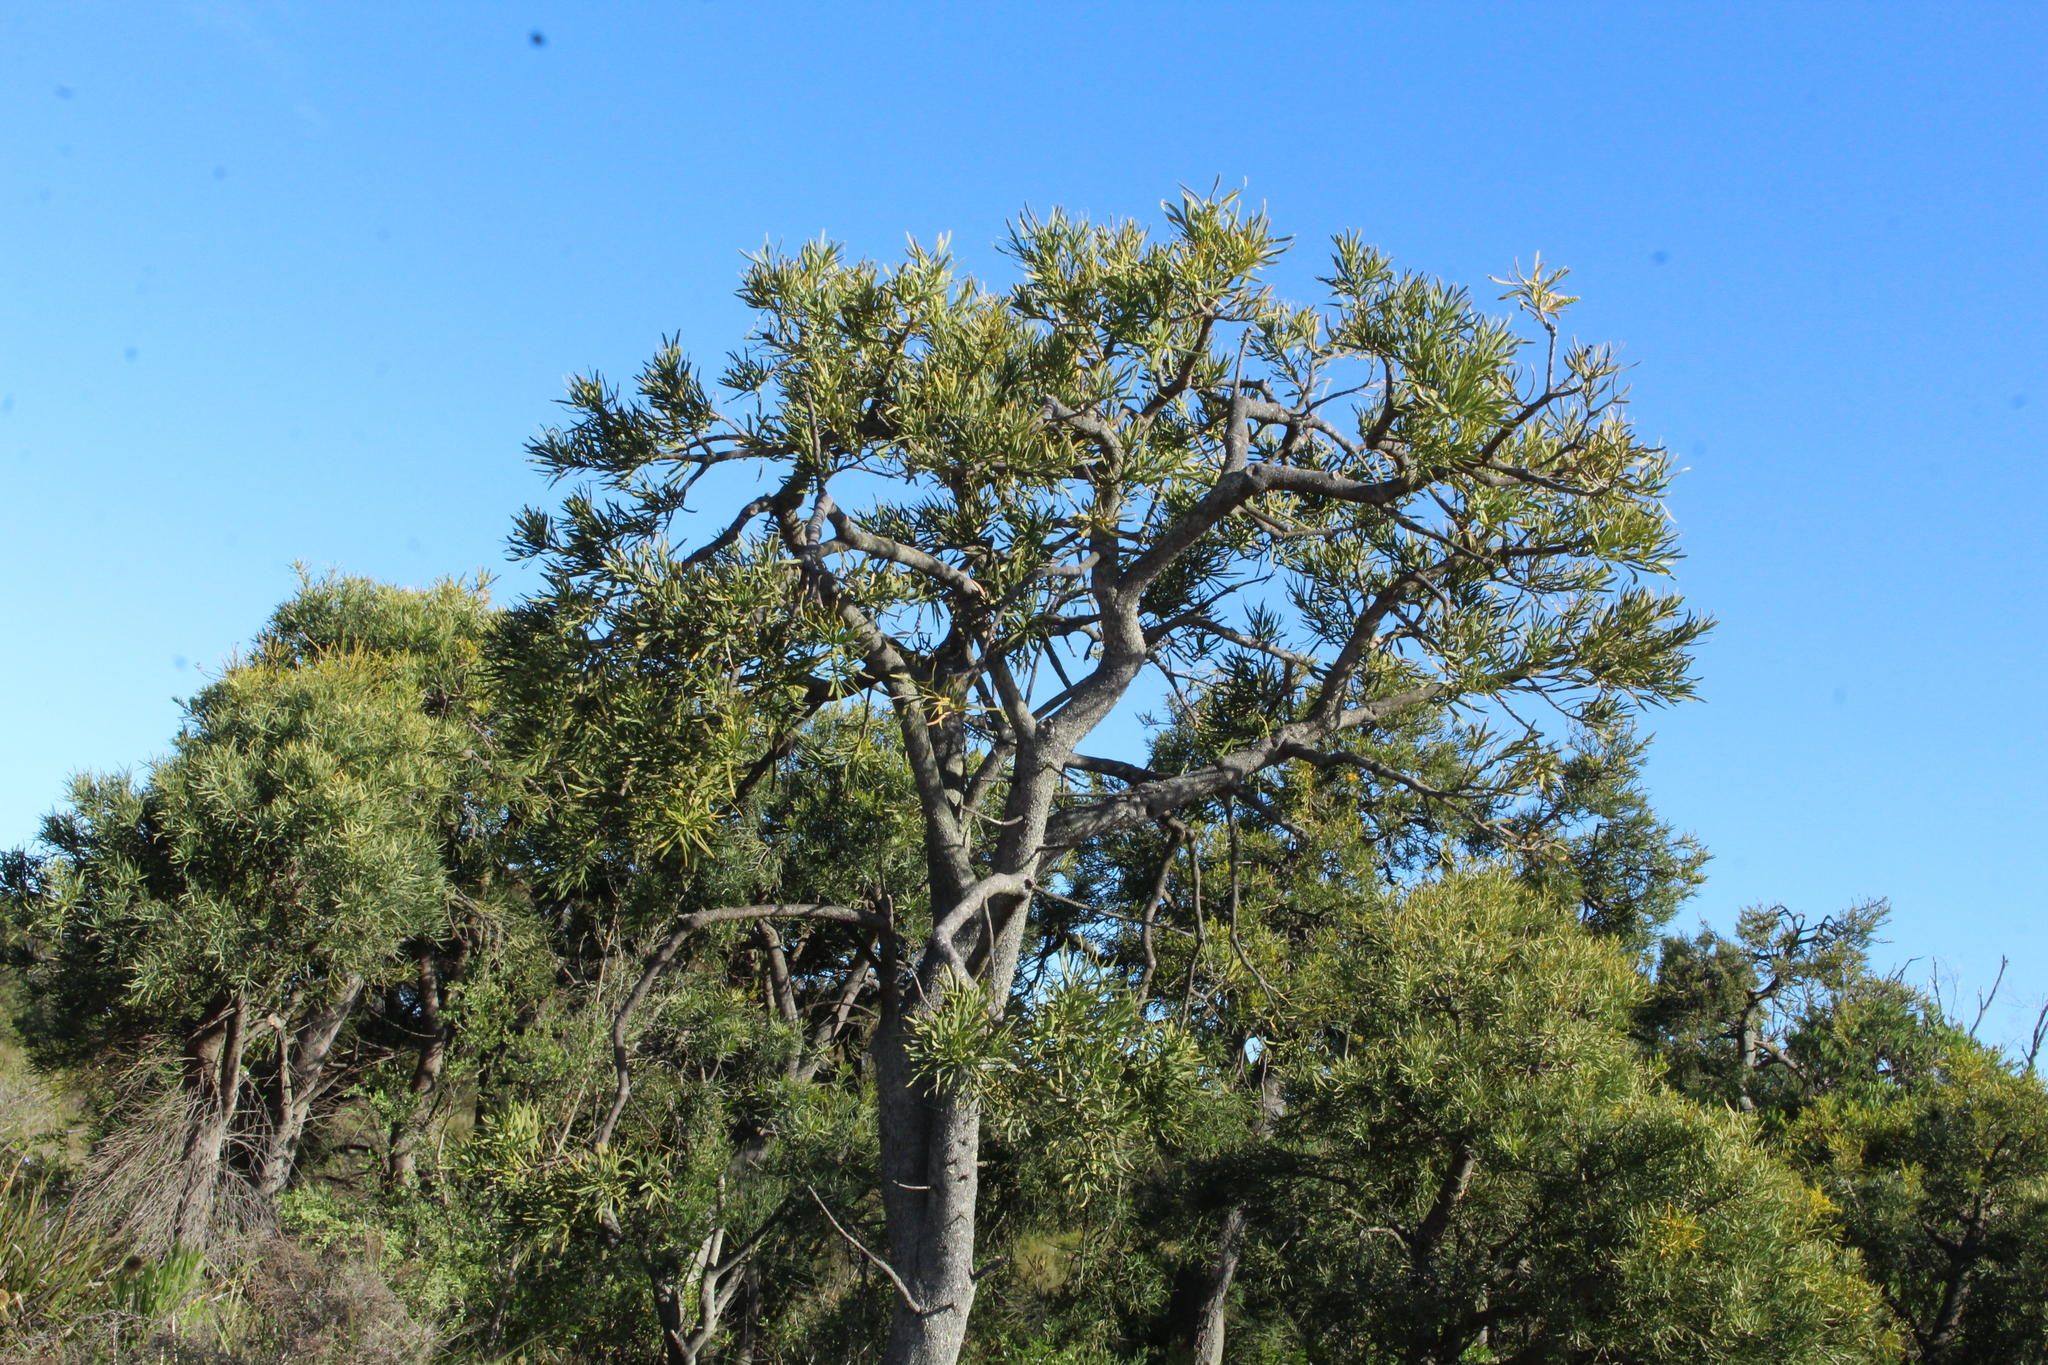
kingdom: Plantae
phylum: Tracheophyta
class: Magnoliopsida
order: Santalales
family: Loranthaceae
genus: Nuytsia
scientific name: Nuytsia floribunda
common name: Western australian christmastree
